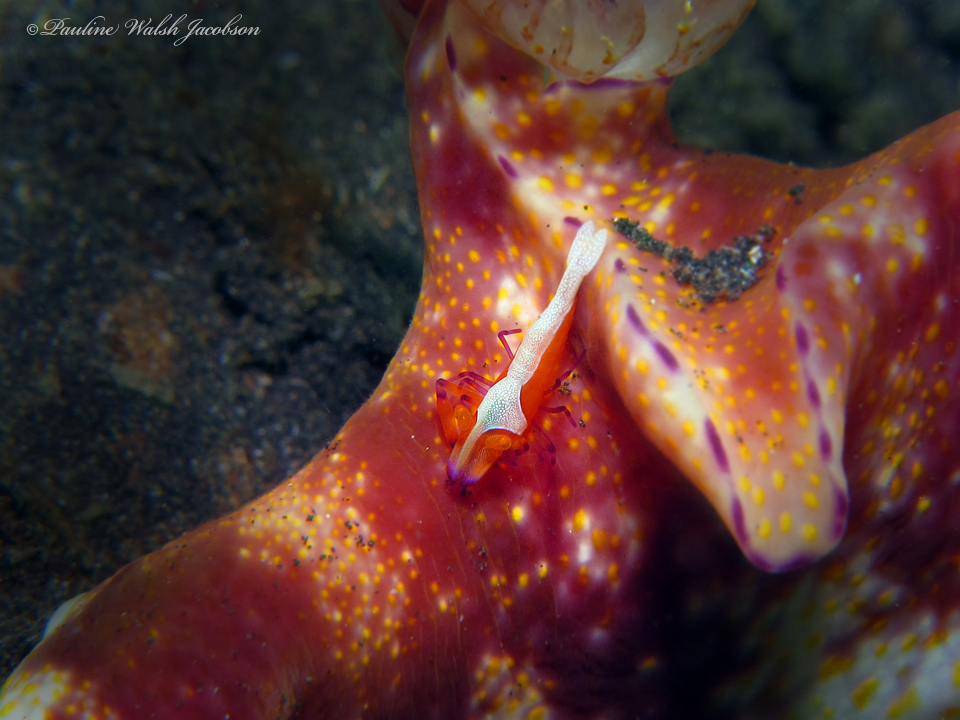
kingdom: Animalia
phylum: Mollusca
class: Gastropoda
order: Nudibranchia
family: Chromodorididae
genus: Ceratosoma
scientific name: Ceratosoma gracillimum
